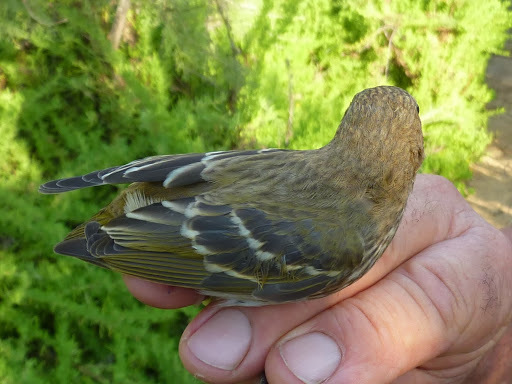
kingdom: Animalia
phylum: Chordata
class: Aves
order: Passeriformes
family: Fringillidae
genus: Carpodacus
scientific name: Carpodacus erythrinus
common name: Common rosefinch
